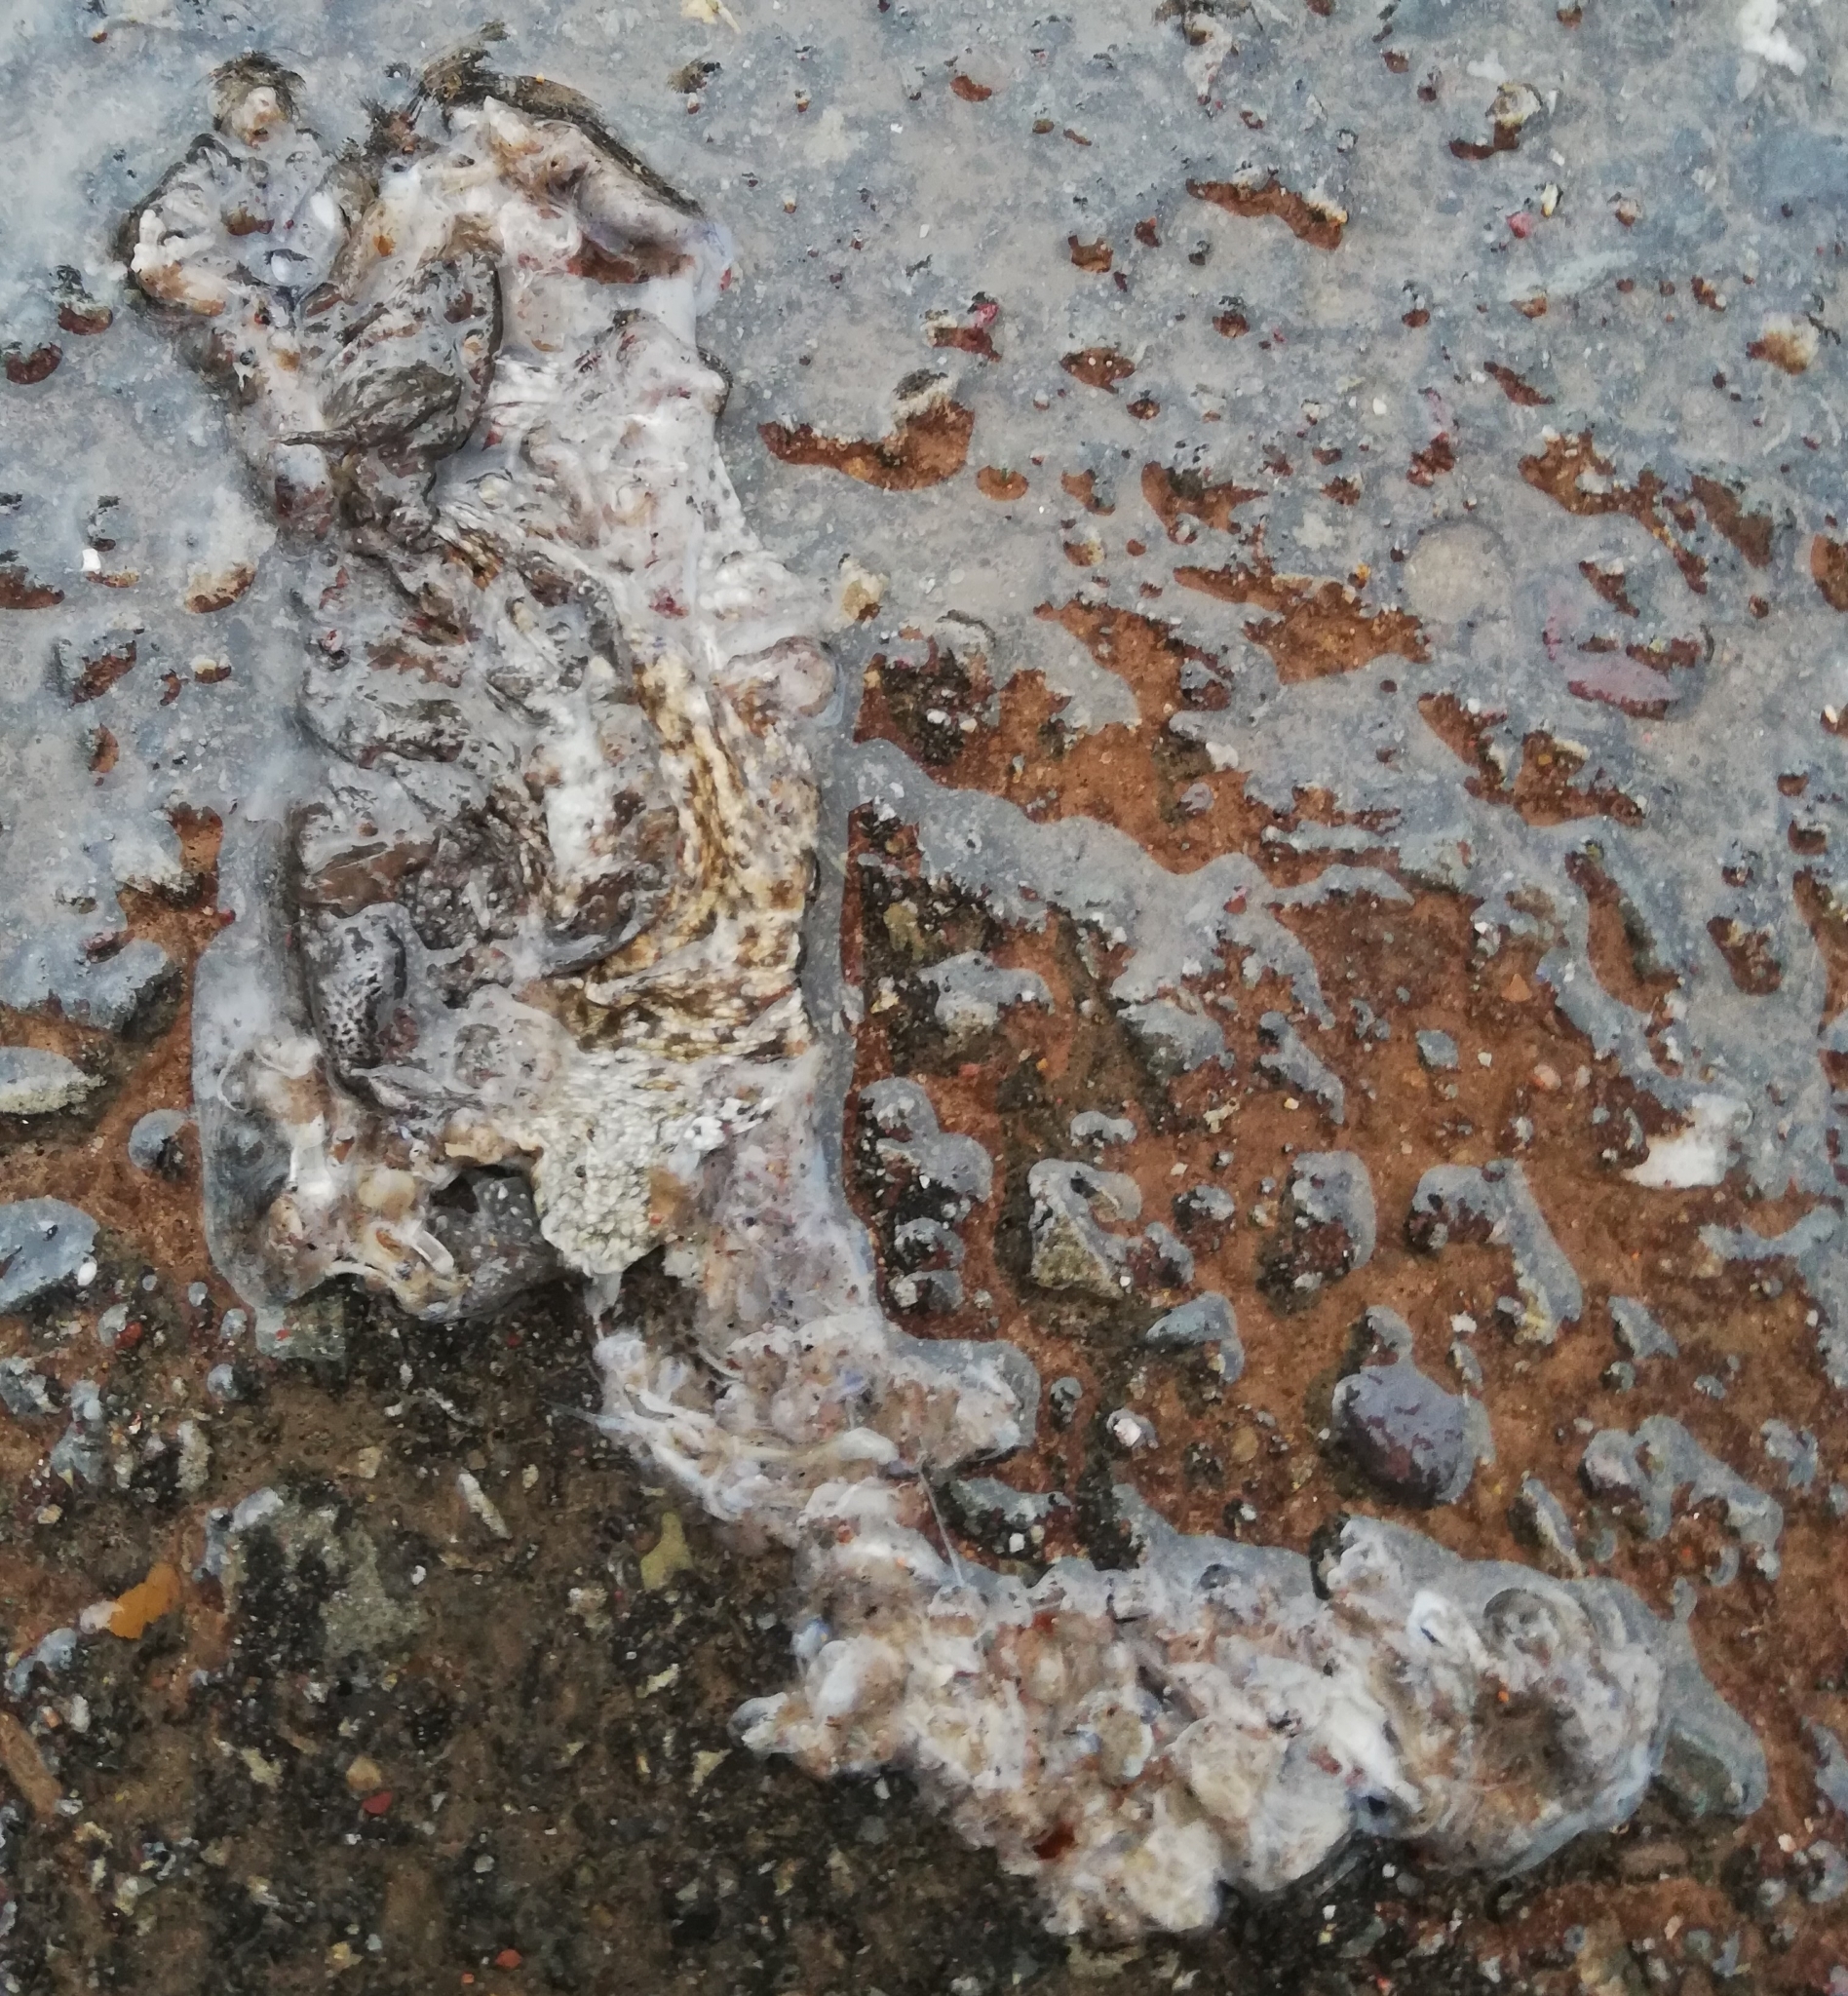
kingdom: Animalia
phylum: Chordata
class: Amphibia
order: Anura
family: Bufonidae
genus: Bufo
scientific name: Bufo bufo
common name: Common toad
